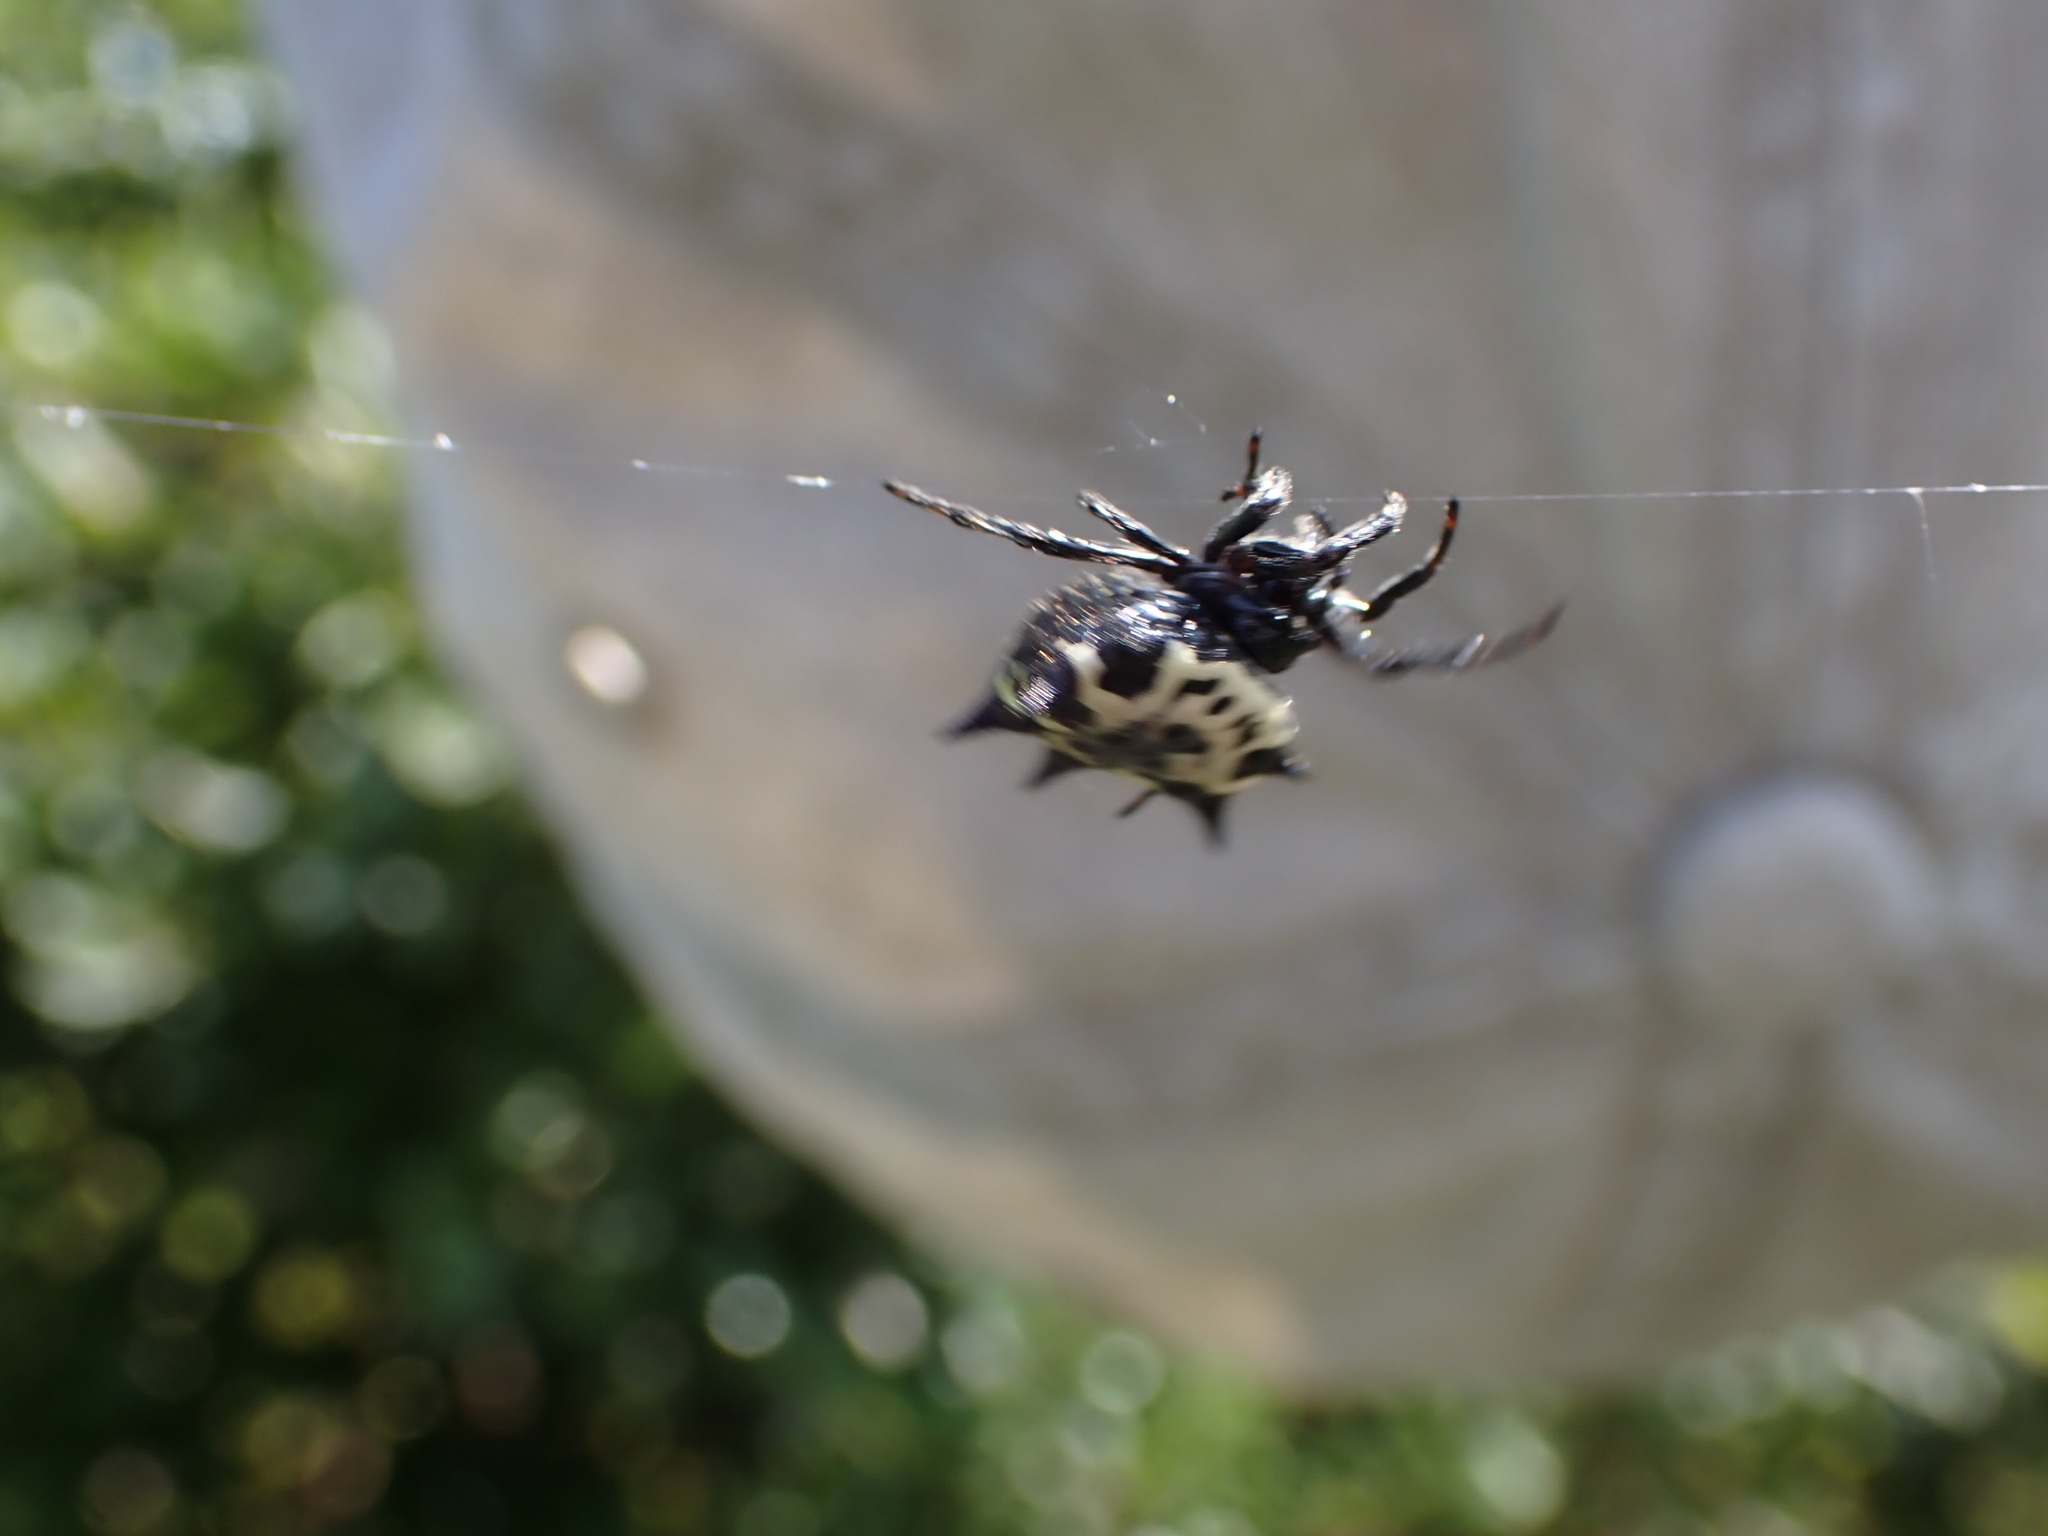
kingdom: Animalia
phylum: Arthropoda
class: Arachnida
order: Araneae
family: Araneidae
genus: Gasteracantha
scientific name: Gasteracantha cancriformis
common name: Orb weavers
